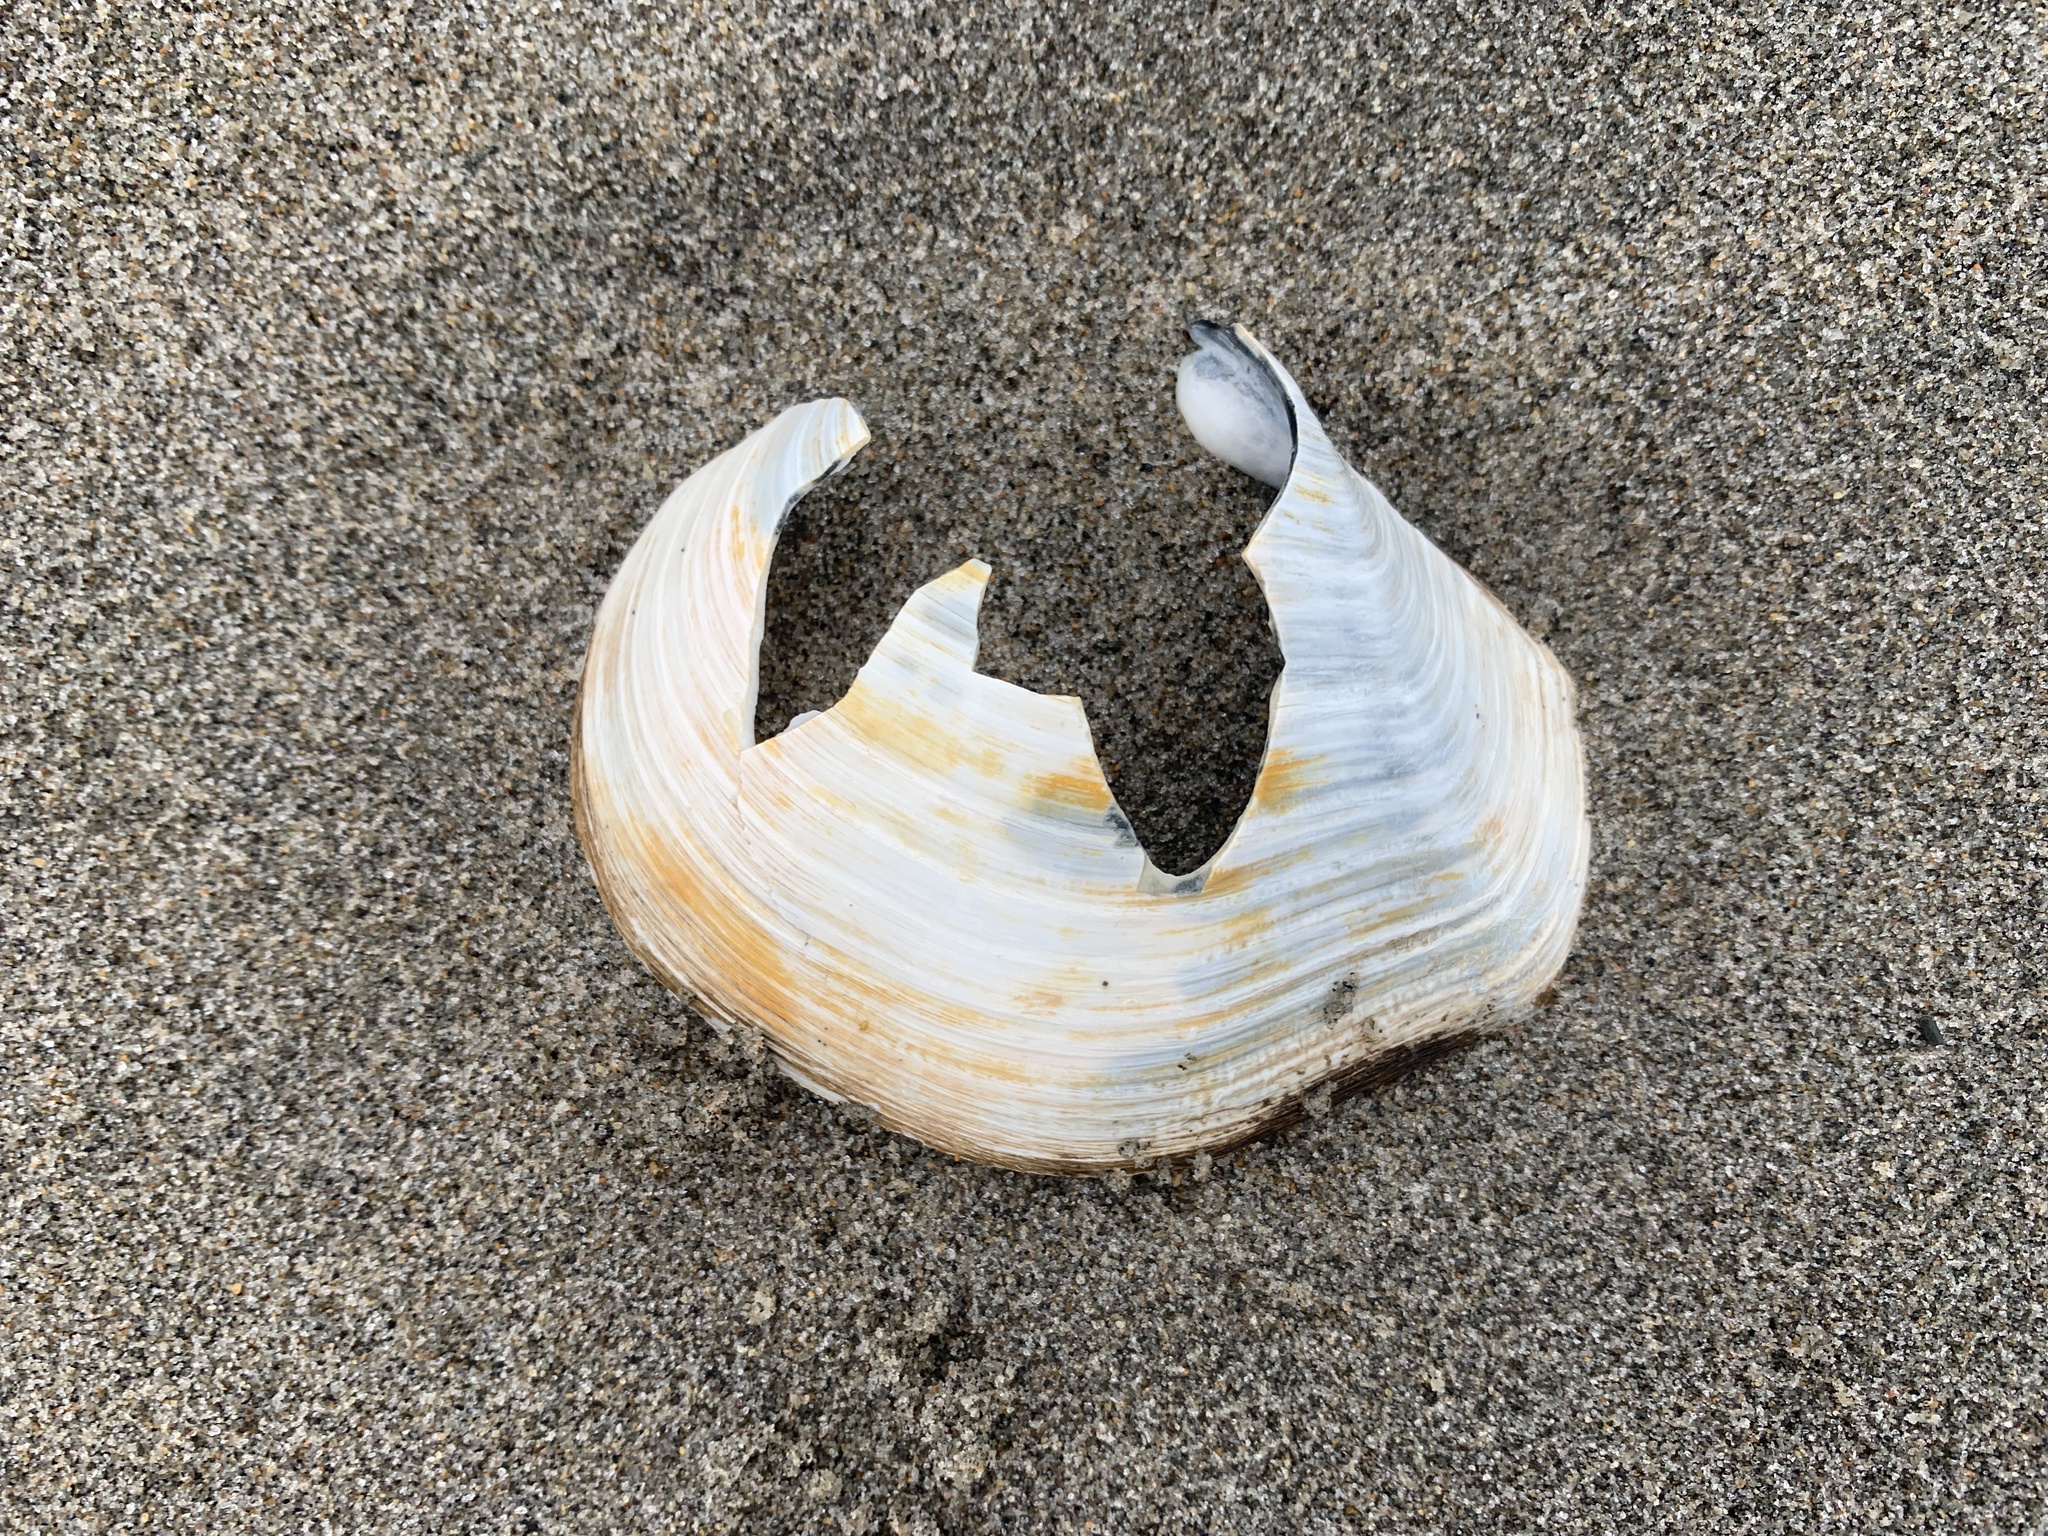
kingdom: Animalia
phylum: Mollusca
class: Bivalvia
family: Thraciidae
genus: Thracia
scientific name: Thracia conradi
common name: Conrad thracia
